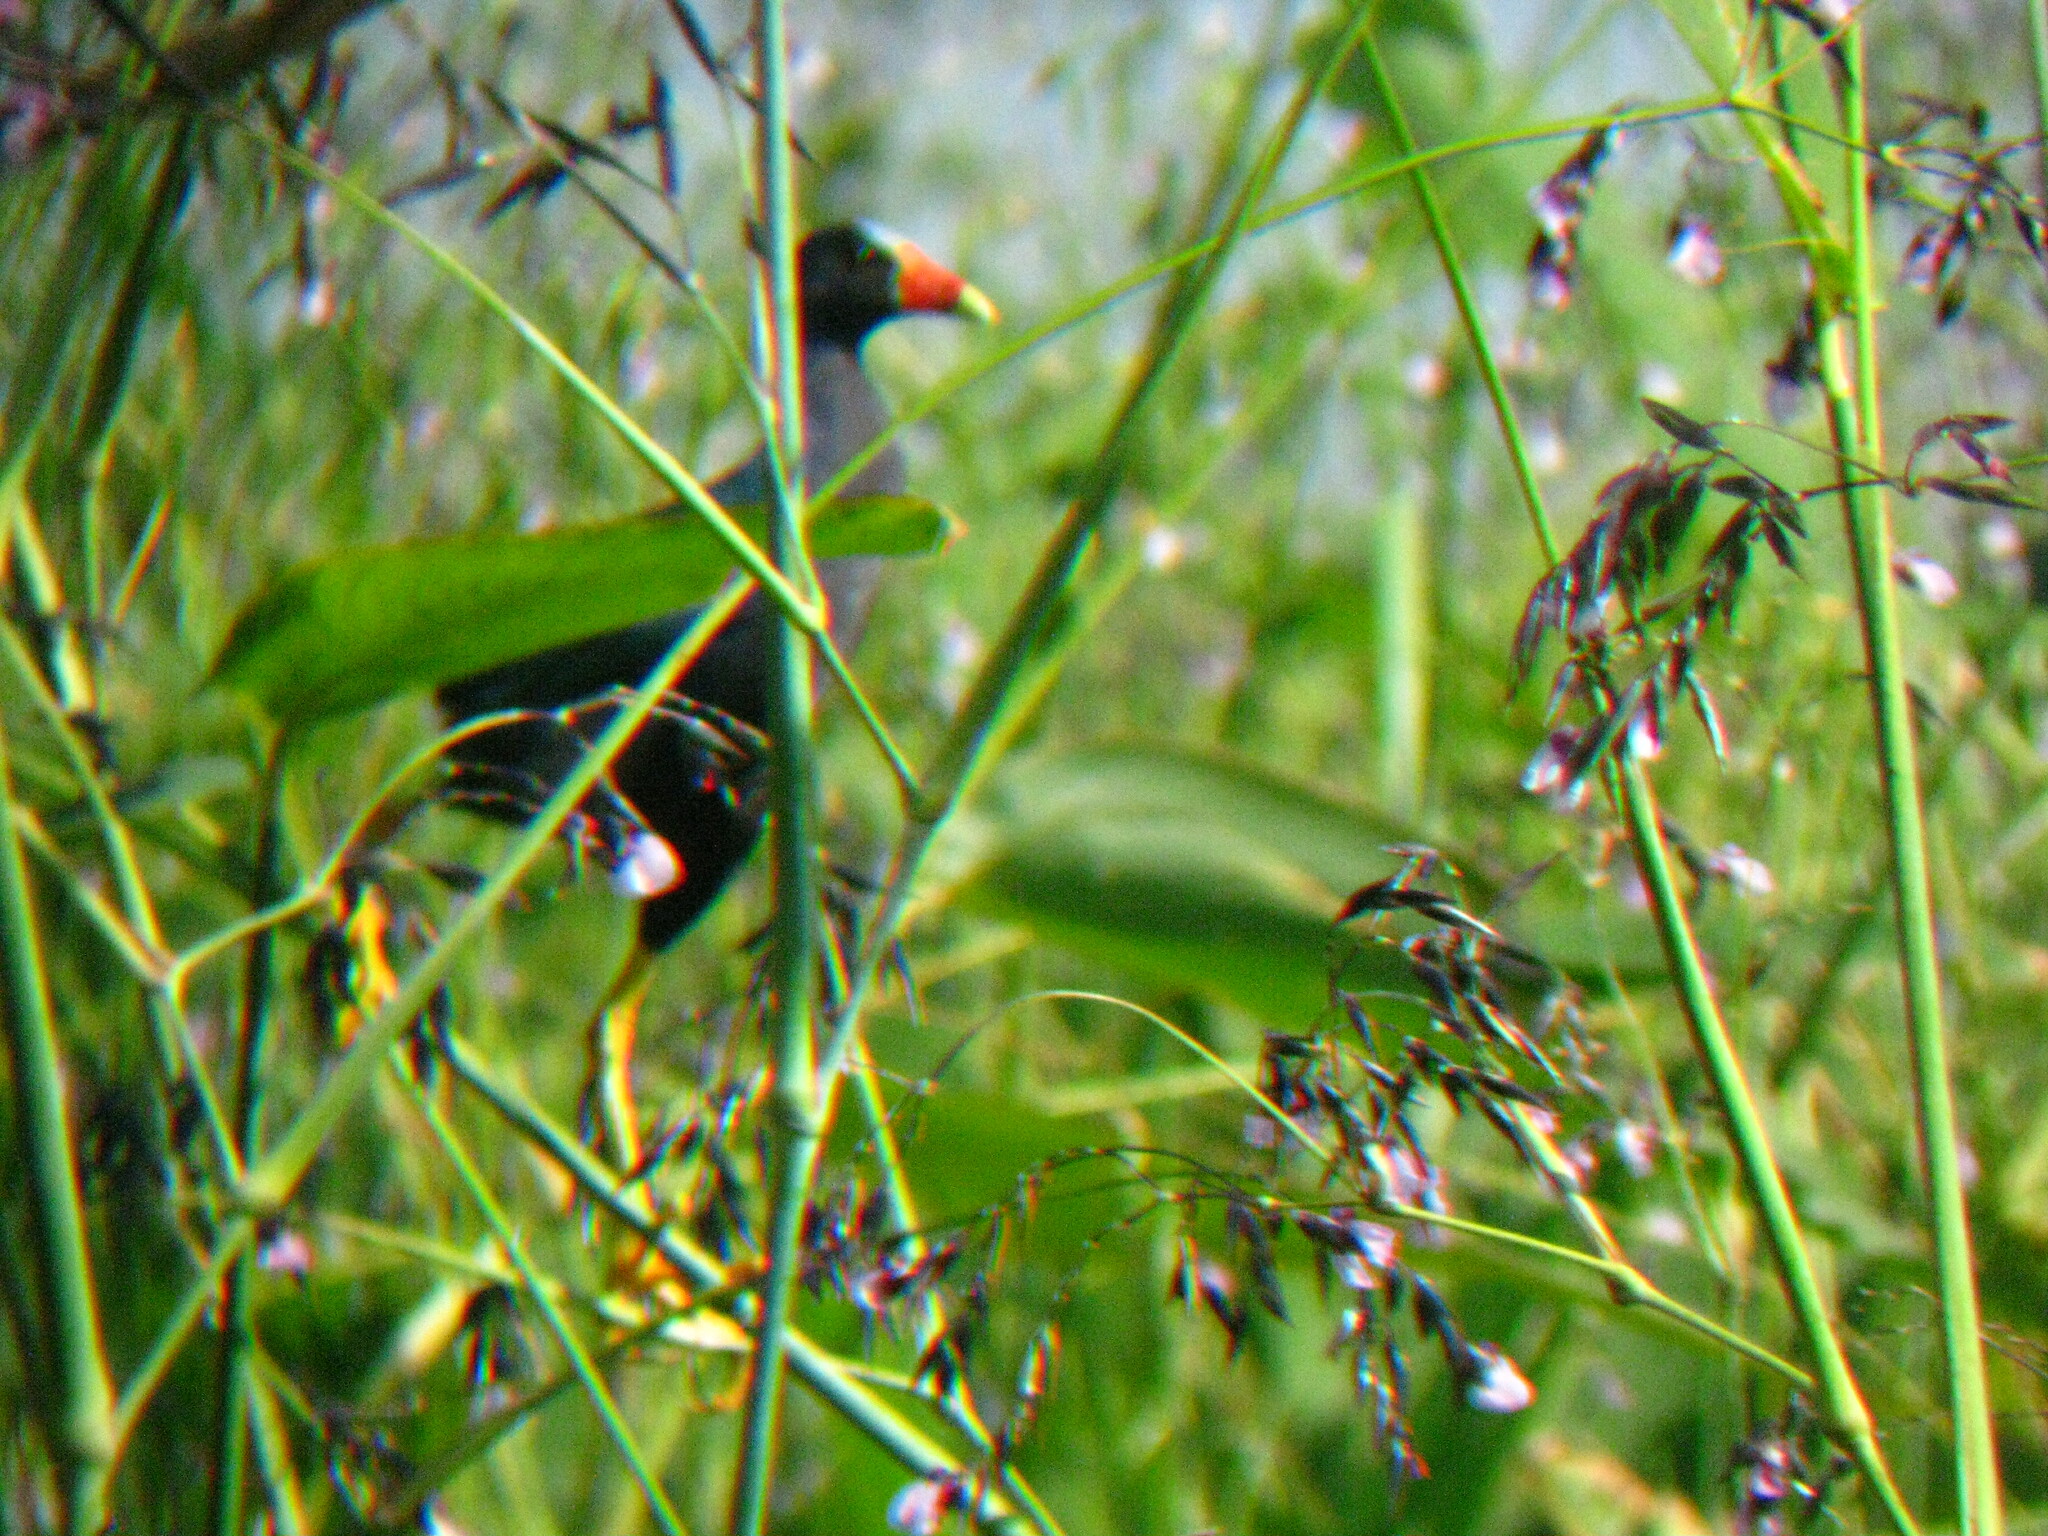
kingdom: Animalia
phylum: Chordata
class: Aves
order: Gruiformes
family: Rallidae
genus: Porphyrio
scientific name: Porphyrio martinica
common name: Purple gallinule
